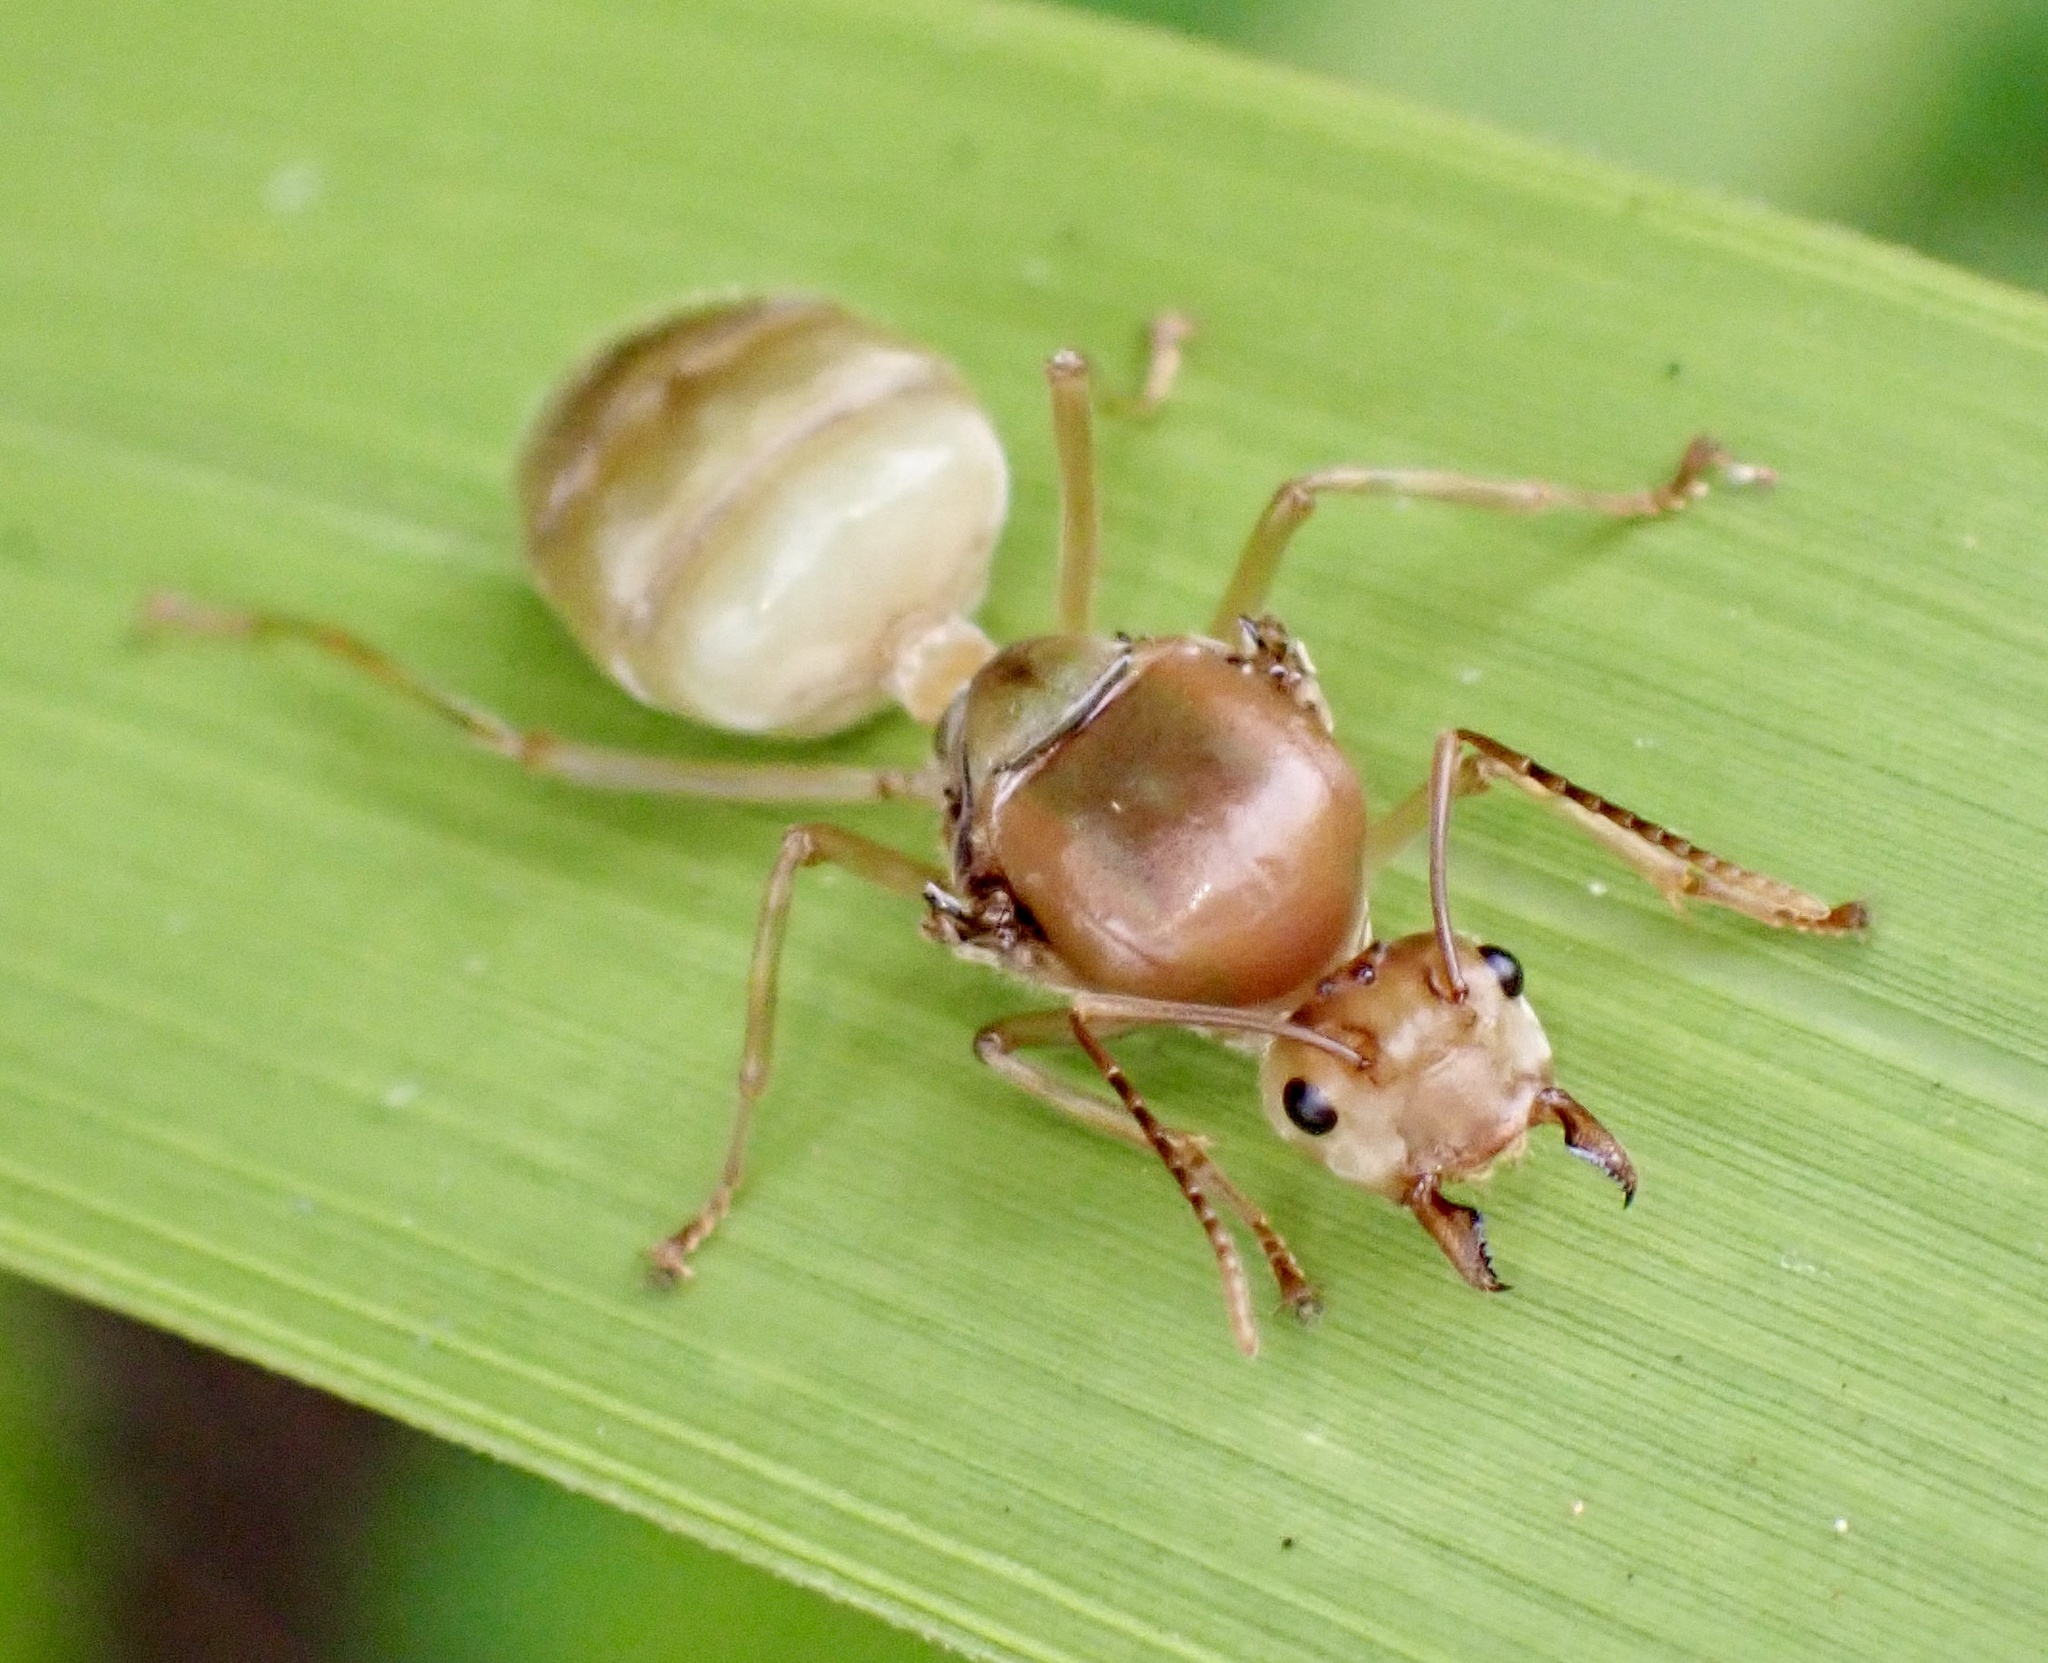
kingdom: Animalia
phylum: Arthropoda
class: Insecta
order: Hymenoptera
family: Formicidae
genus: Oecophylla
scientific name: Oecophylla smaragdina
